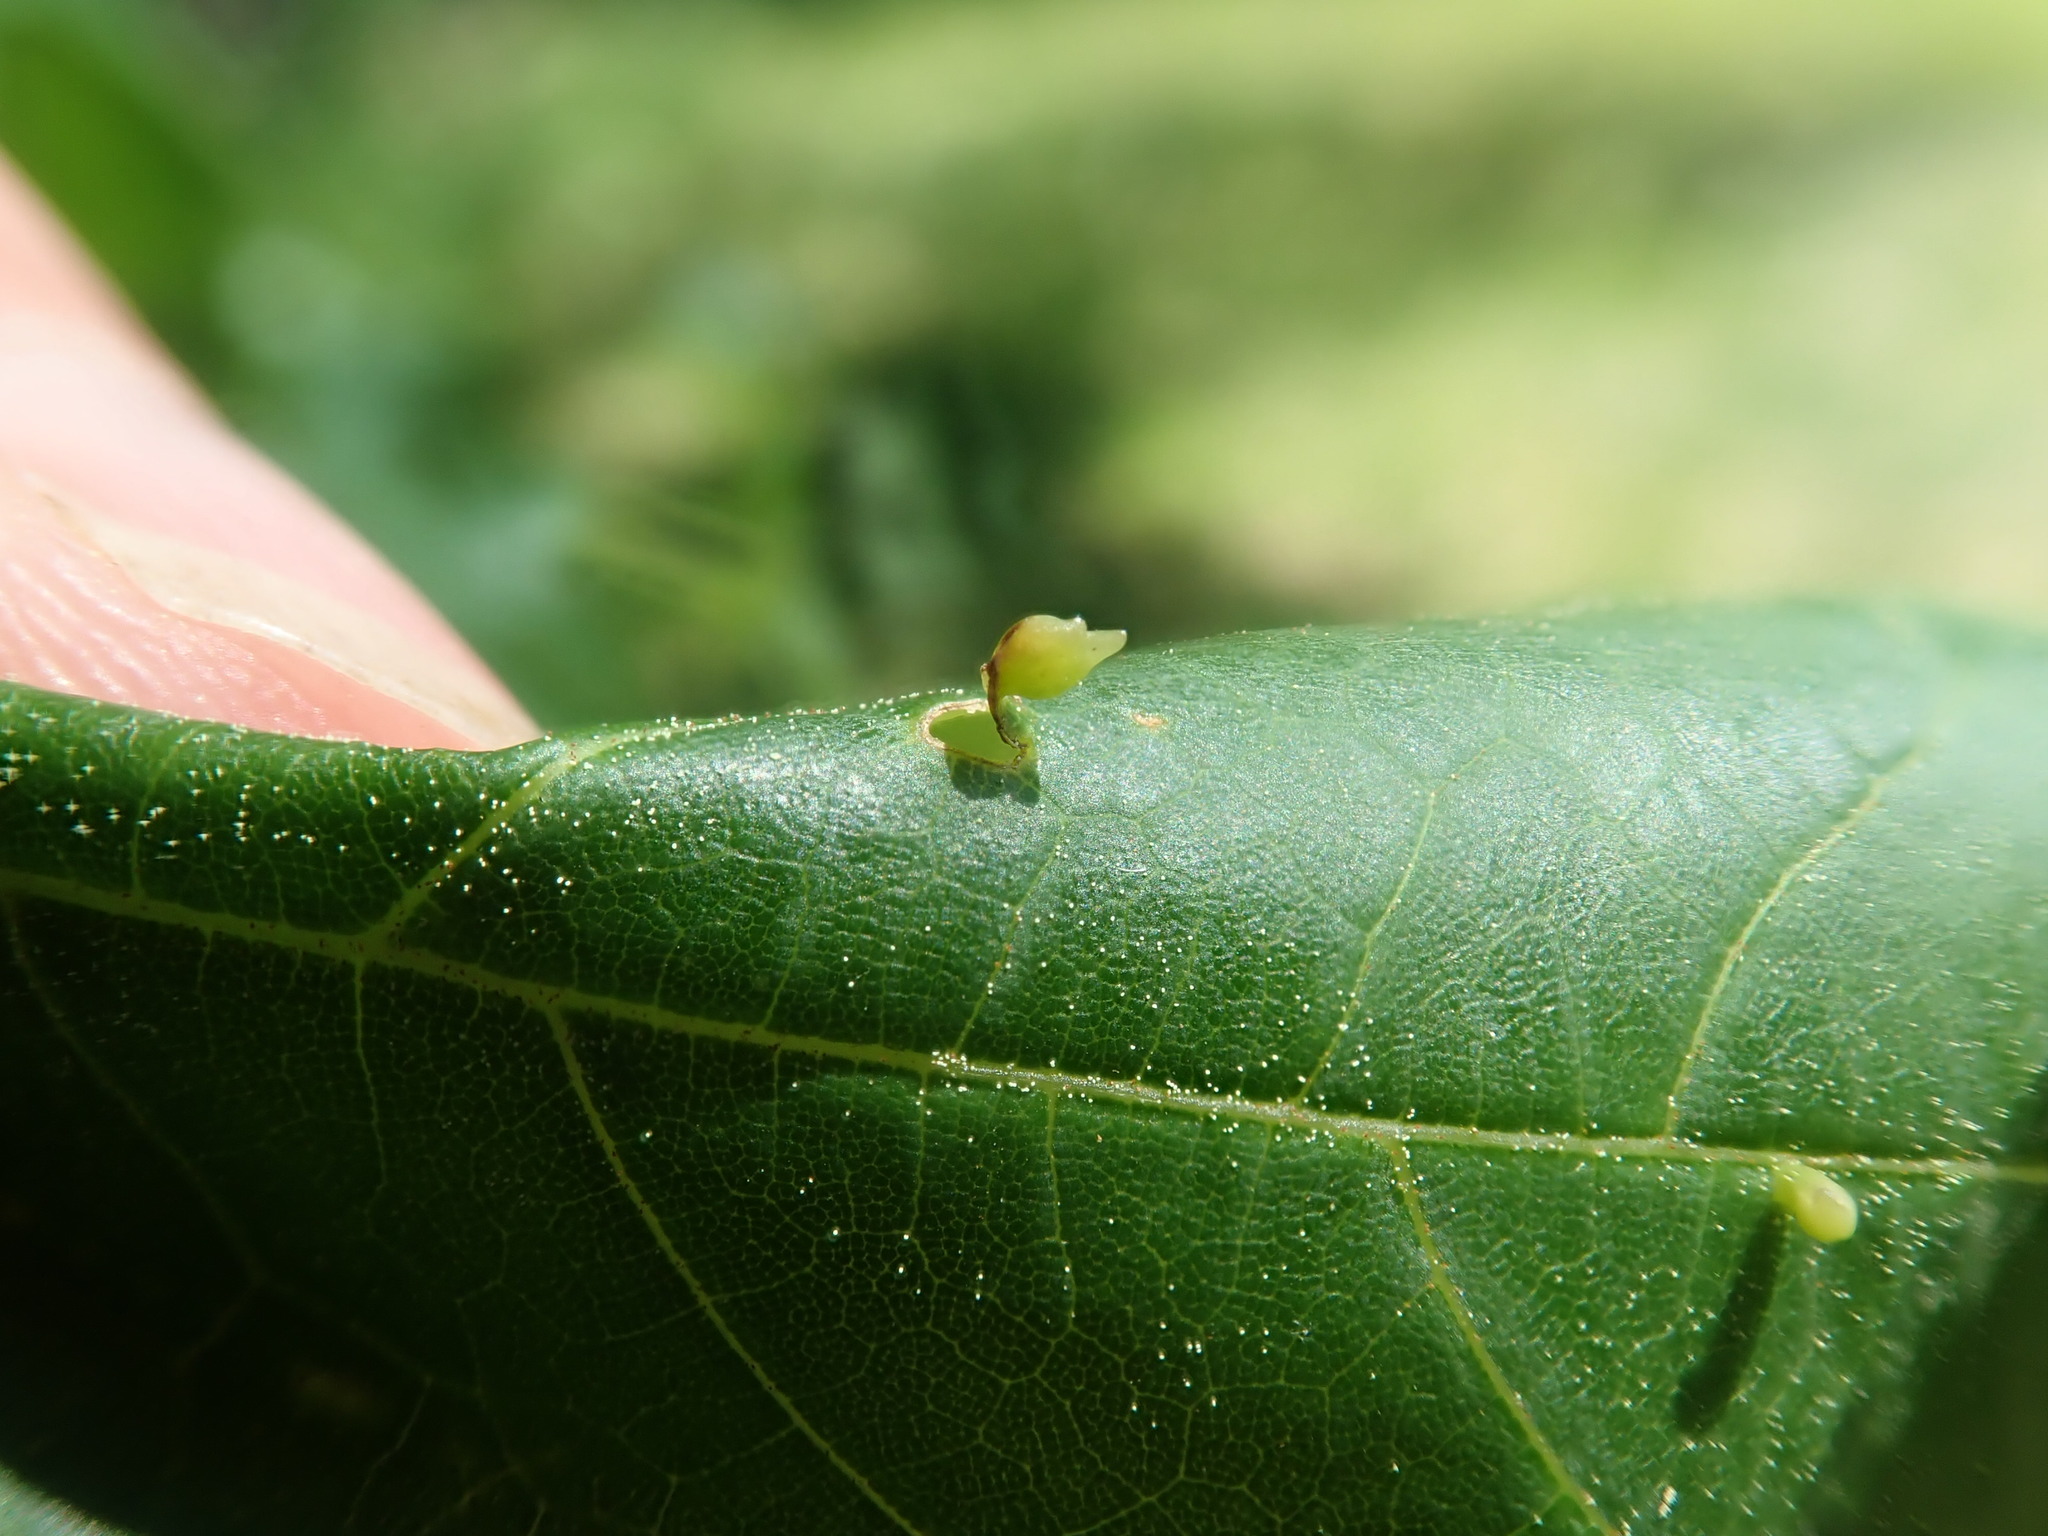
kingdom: Animalia
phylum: Arthropoda
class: Arachnida
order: Trombidiformes
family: Eriophyidae
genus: Vasates
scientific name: Vasates aceriscrumena
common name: Maple spindle gall mite
